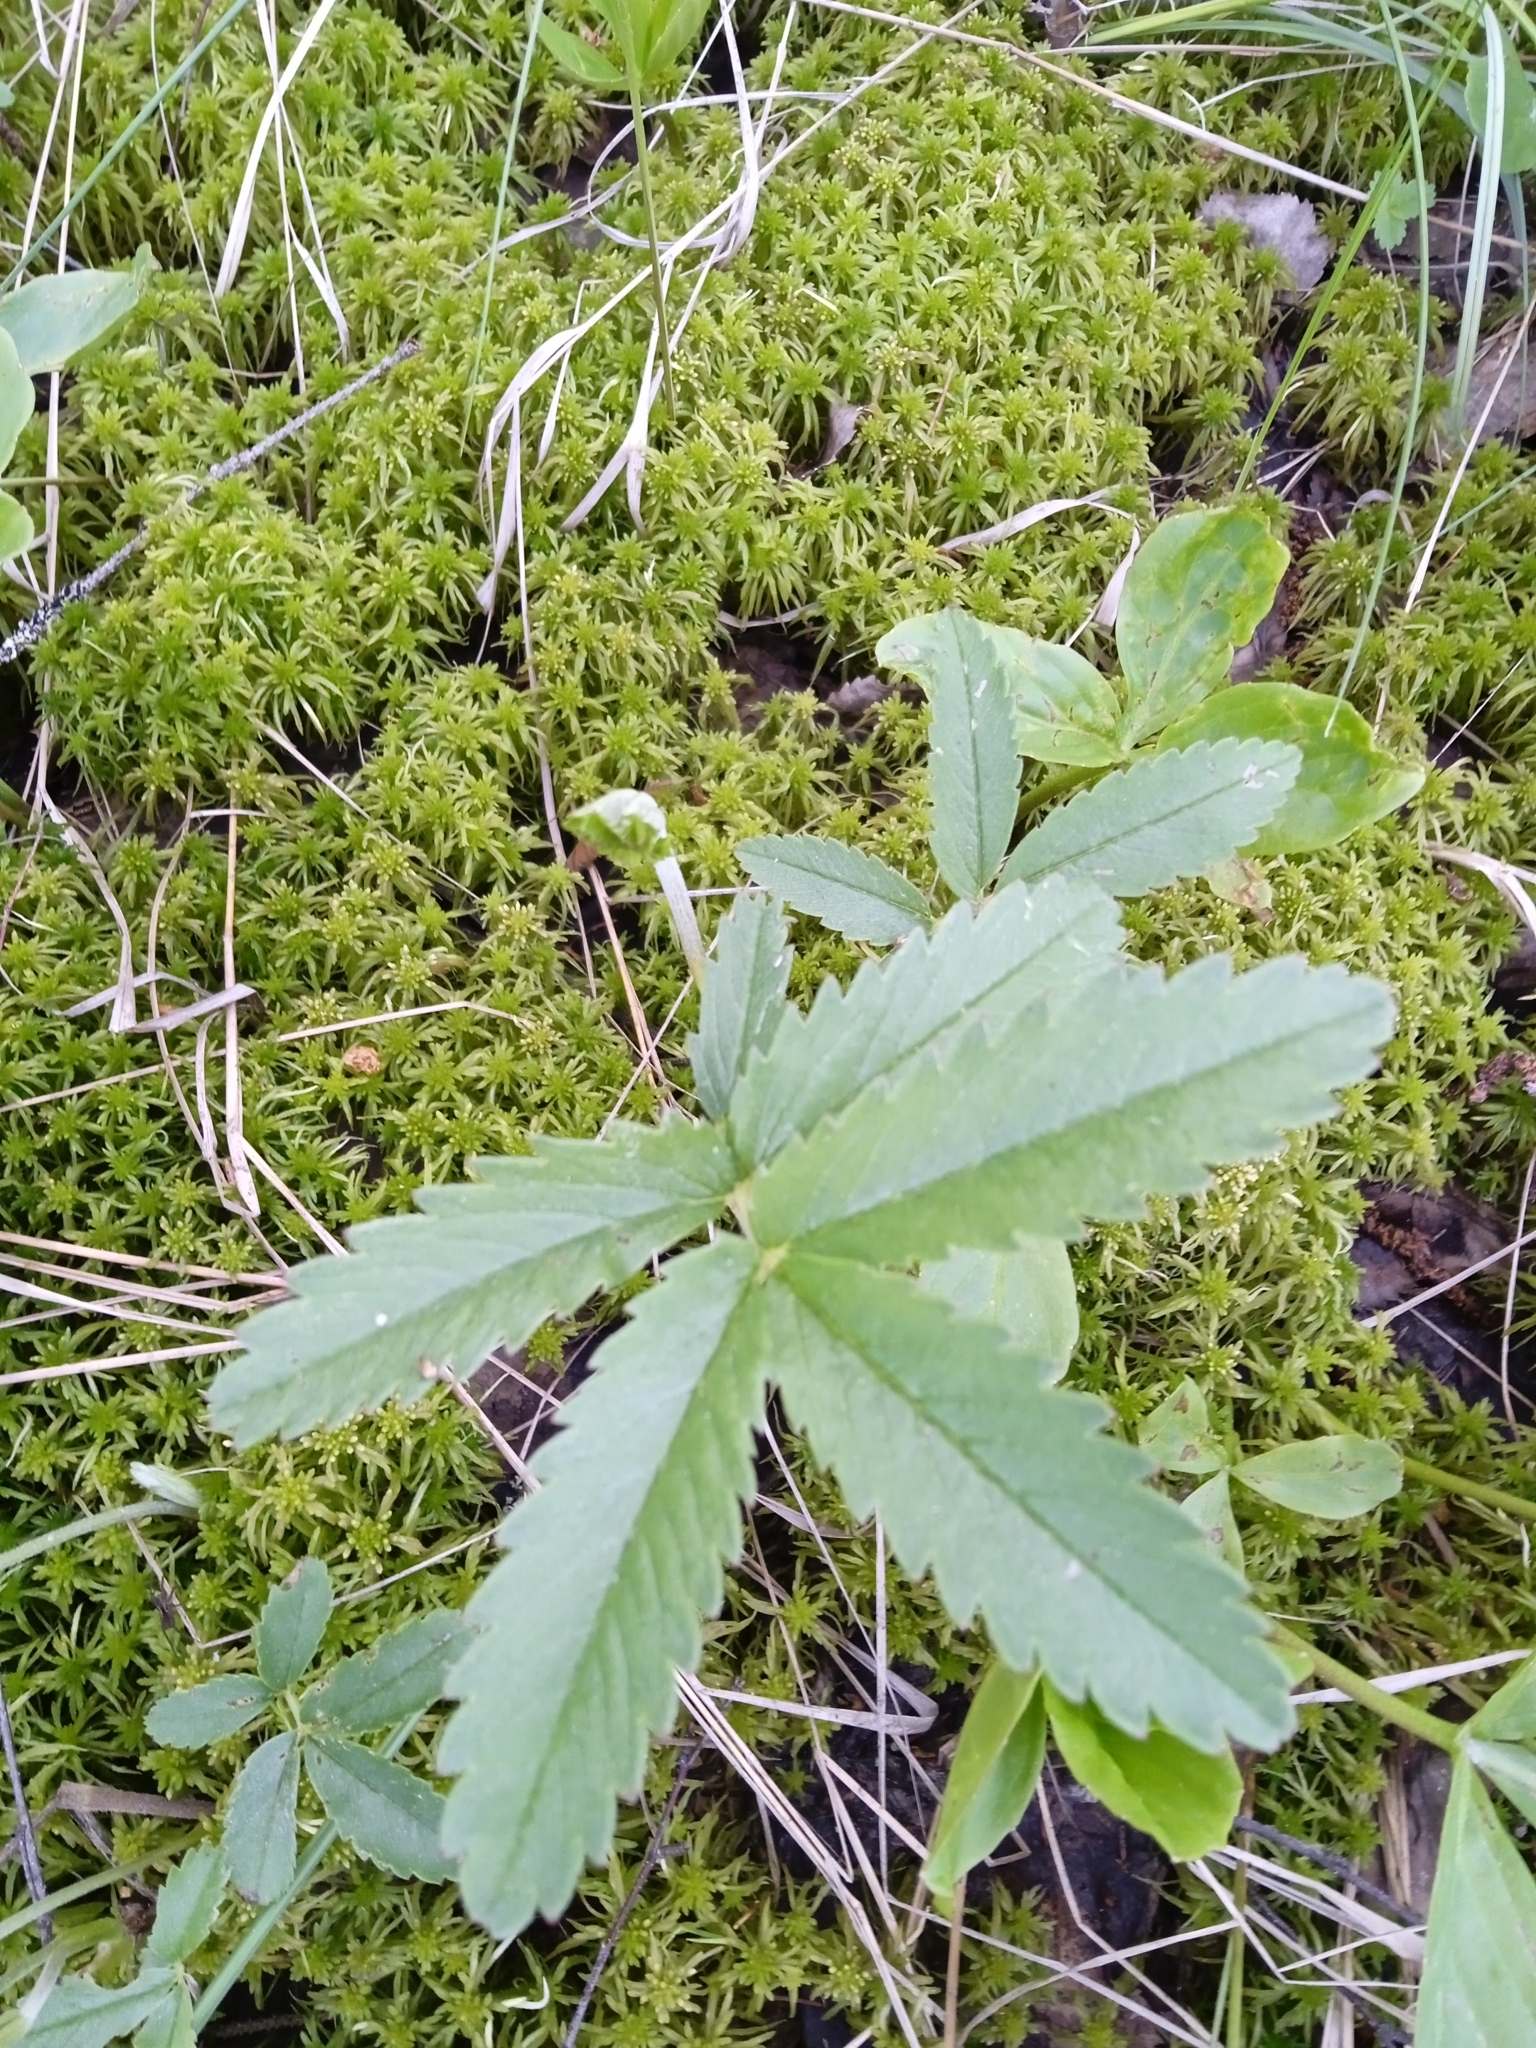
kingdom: Plantae
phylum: Tracheophyta
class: Magnoliopsida
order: Rosales
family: Rosaceae
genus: Comarum
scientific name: Comarum palustre
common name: Marsh cinquefoil
